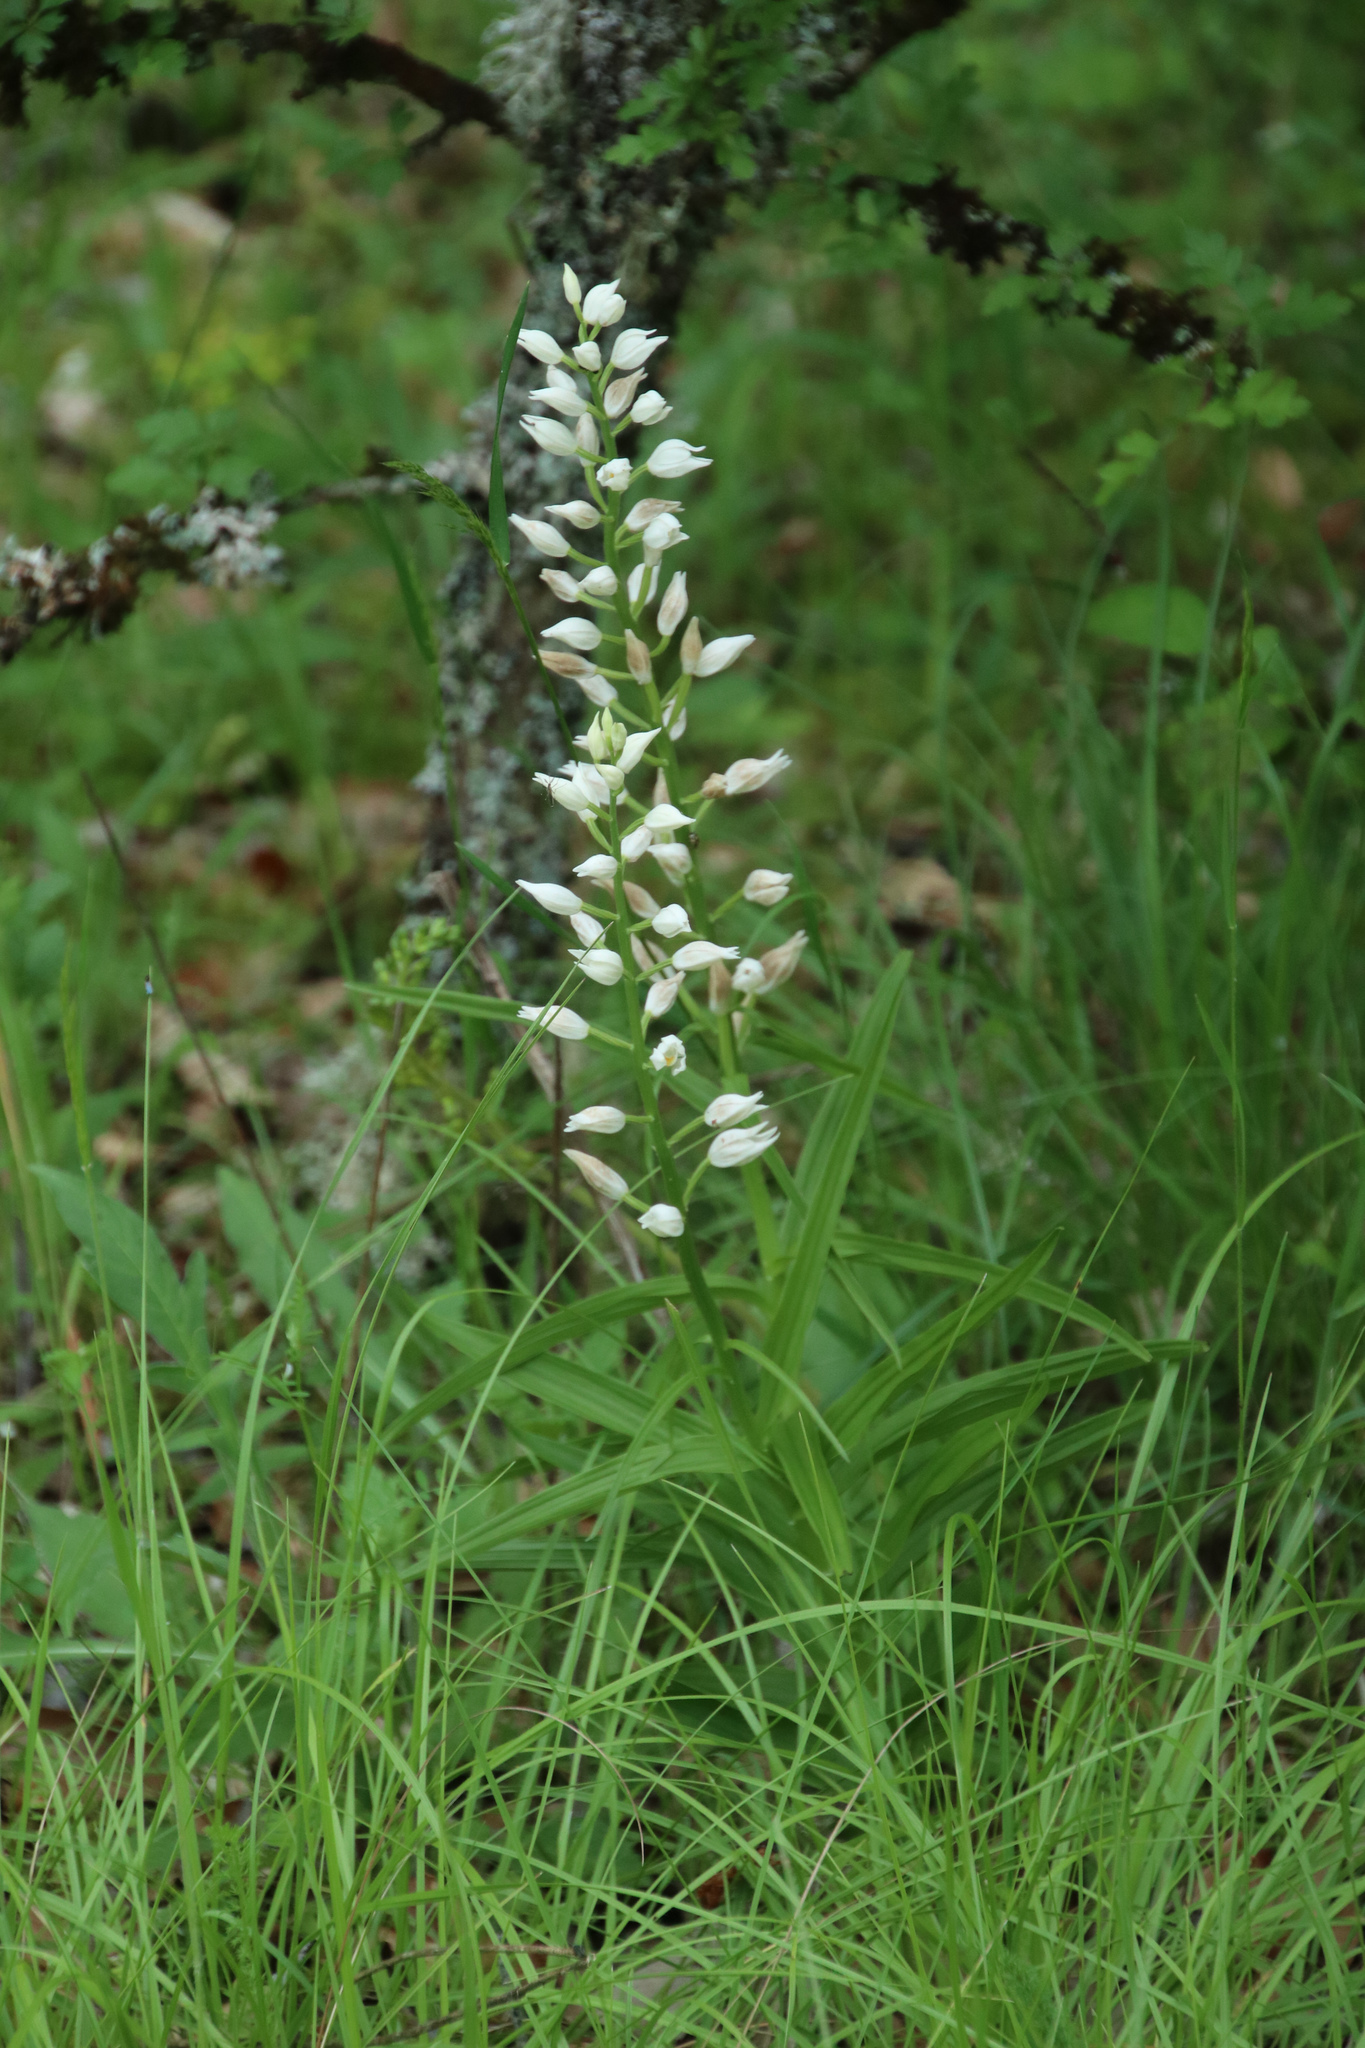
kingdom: Plantae
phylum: Tracheophyta
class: Liliopsida
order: Asparagales
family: Orchidaceae
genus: Cephalanthera
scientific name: Cephalanthera longifolia
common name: Narrow-leaved helleborine
